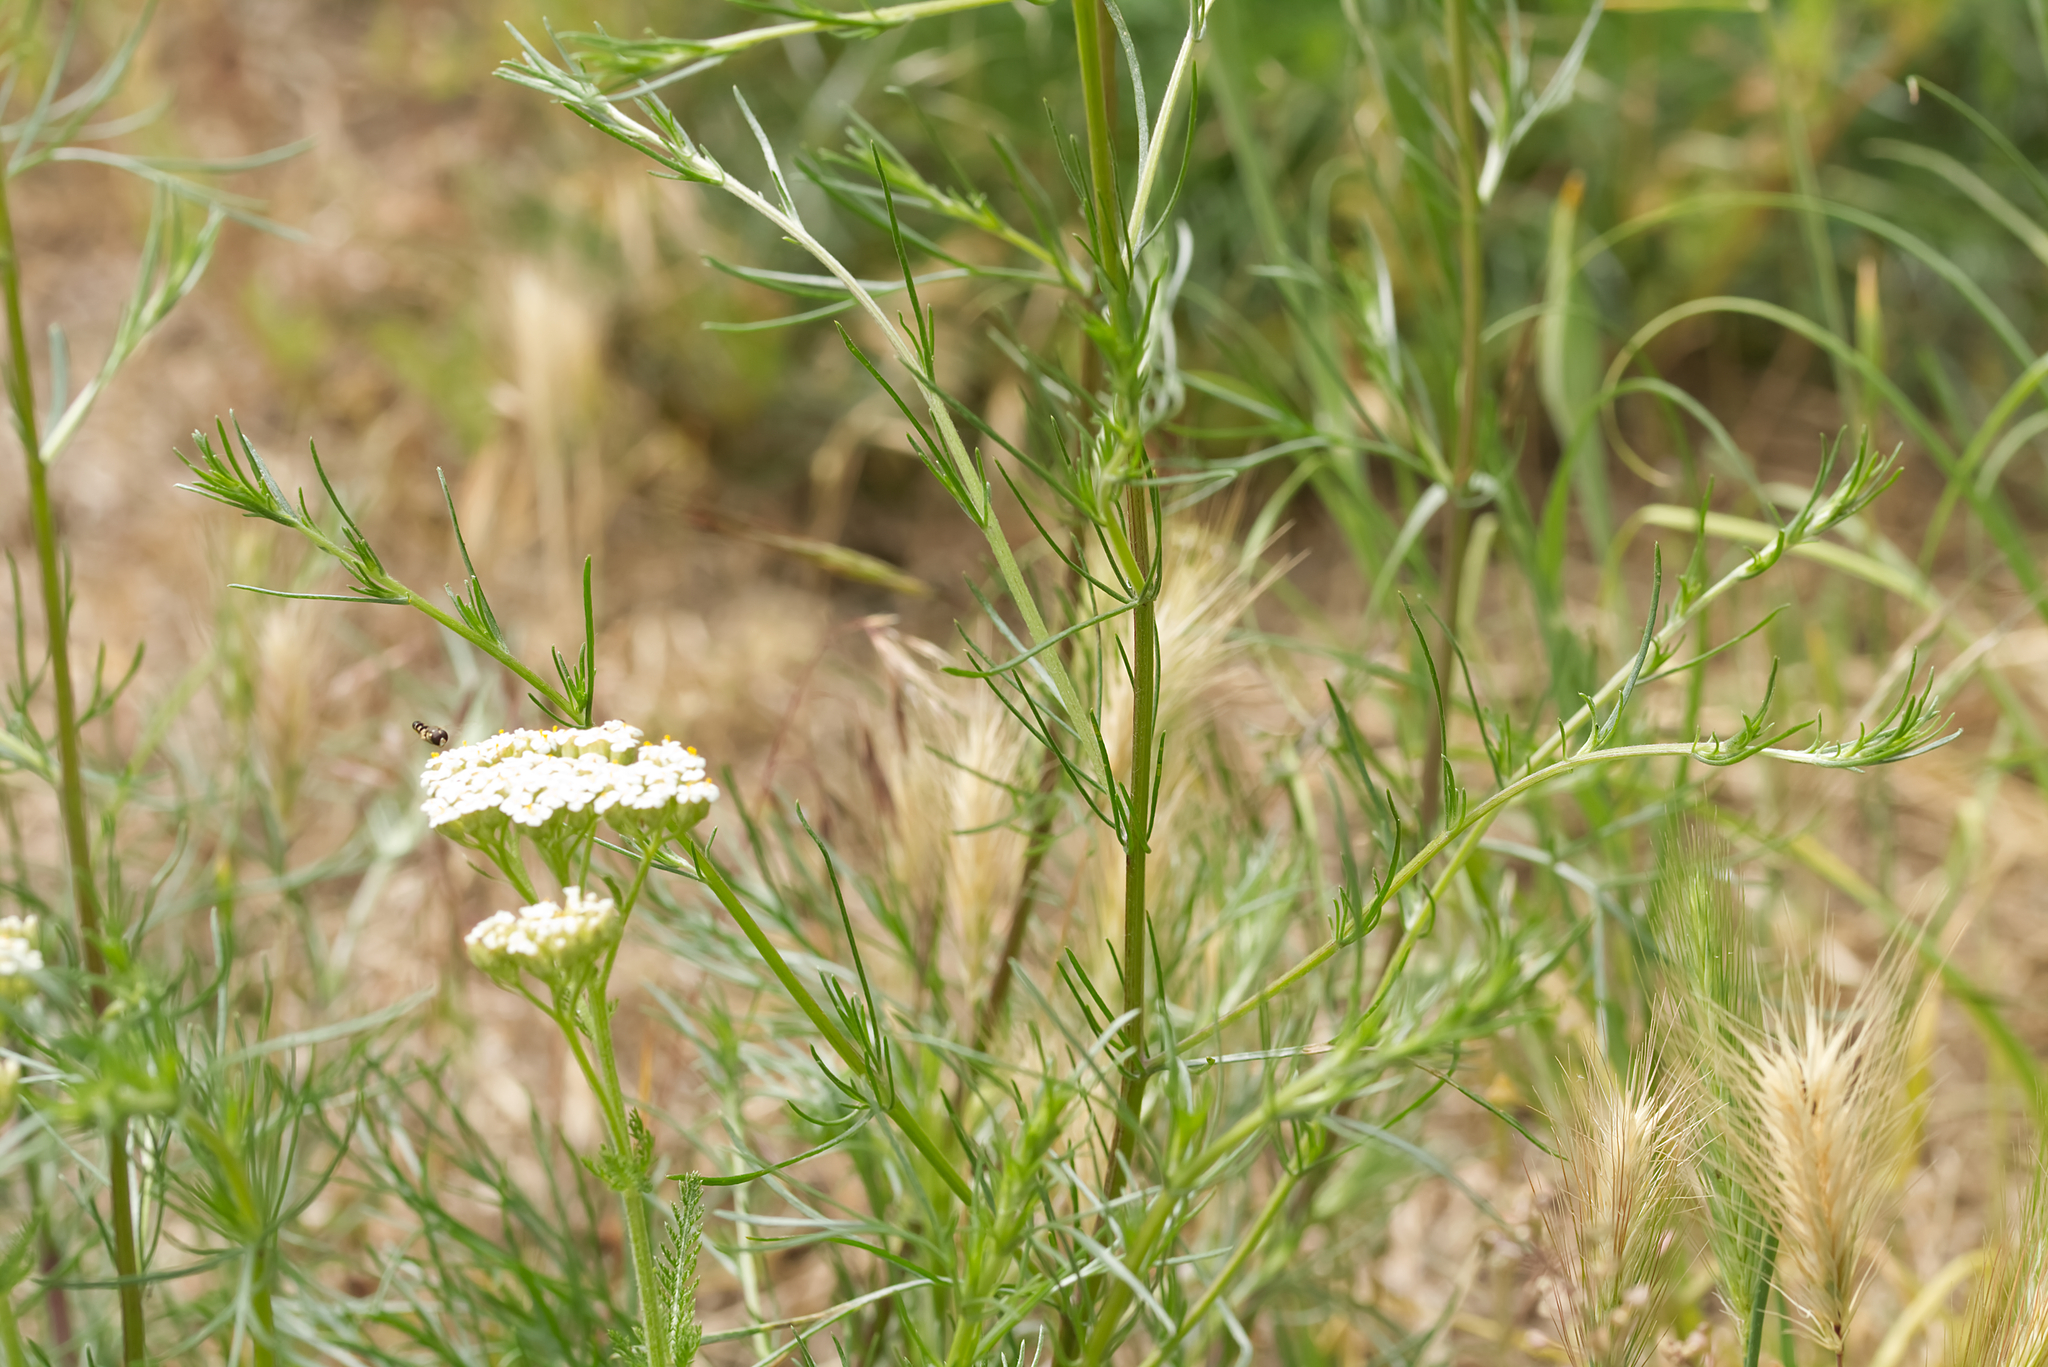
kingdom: Plantae
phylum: Tracheophyta
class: Magnoliopsida
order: Asterales
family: Asteraceae
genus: Artemisia
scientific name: Artemisia campestris
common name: Field wormwood
